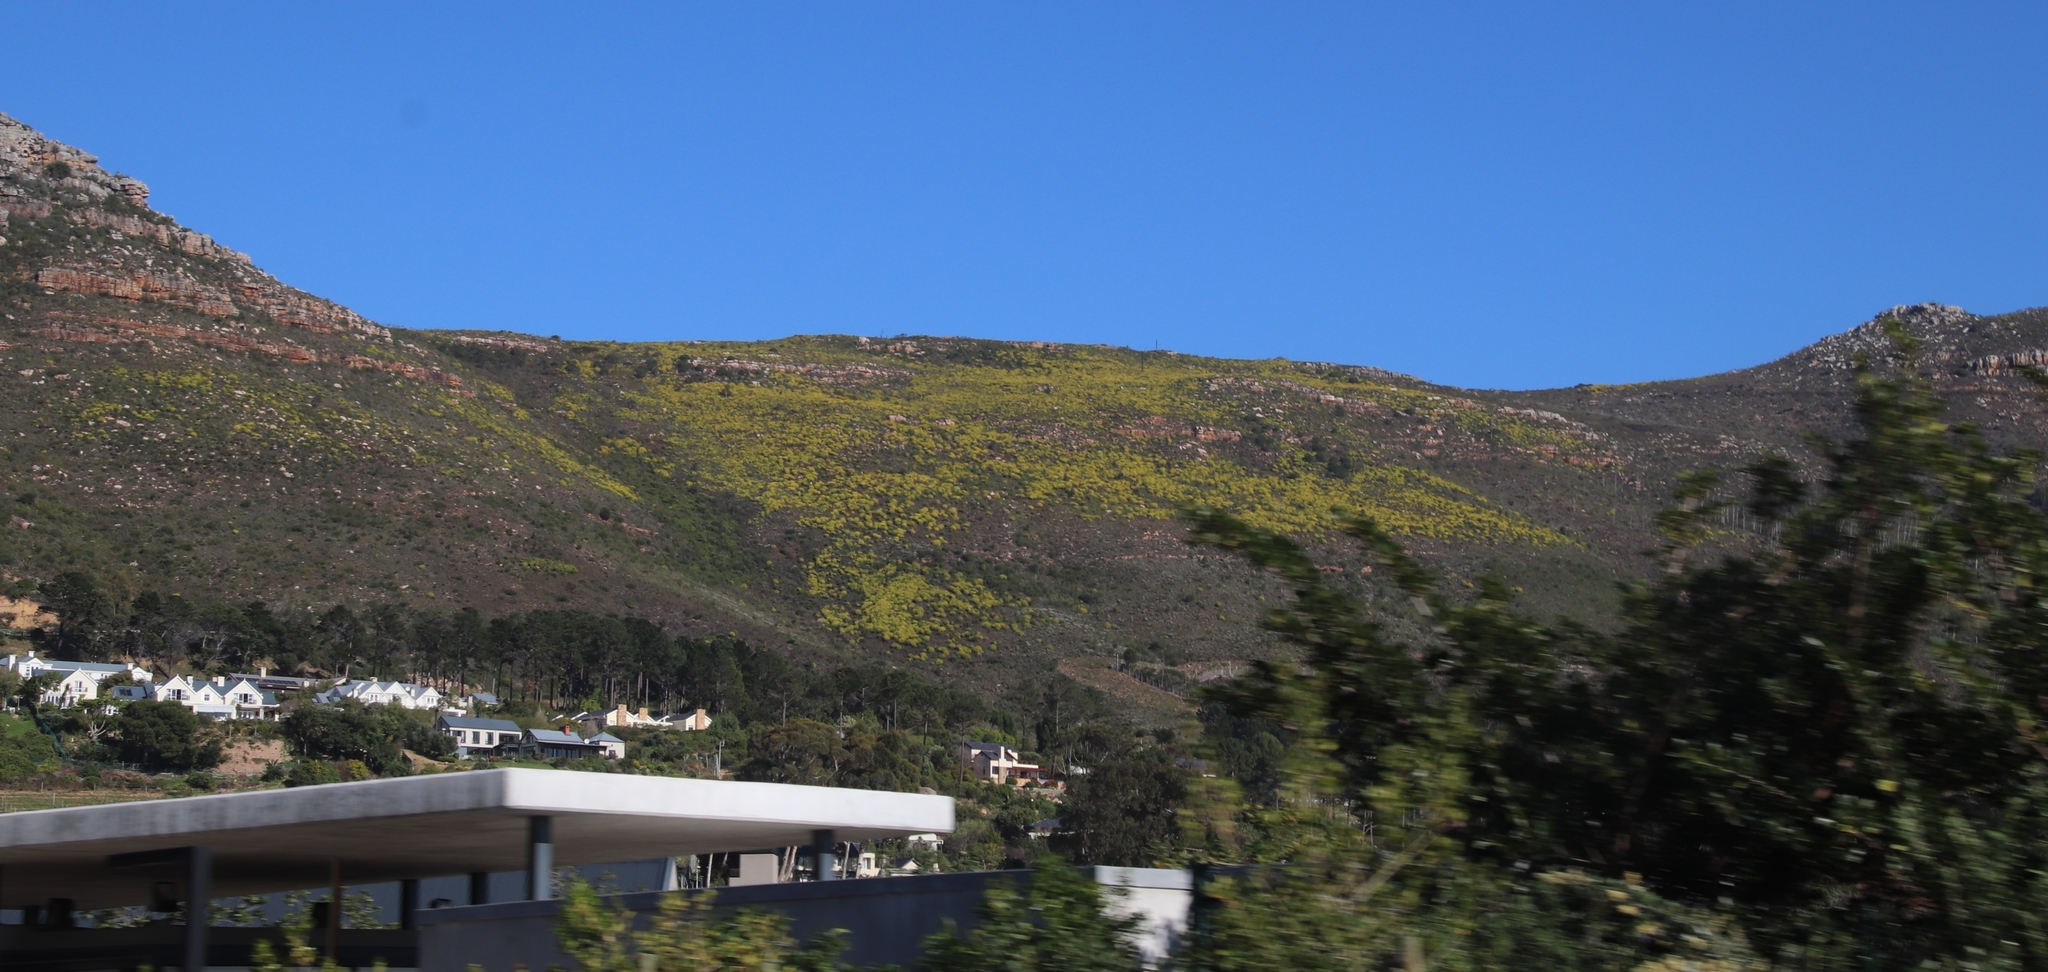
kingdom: Plantae
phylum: Tracheophyta
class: Magnoliopsida
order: Proteales
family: Proteaceae
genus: Leucadendron
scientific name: Leucadendron xanthoconus
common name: Sickle-leaf conebush
